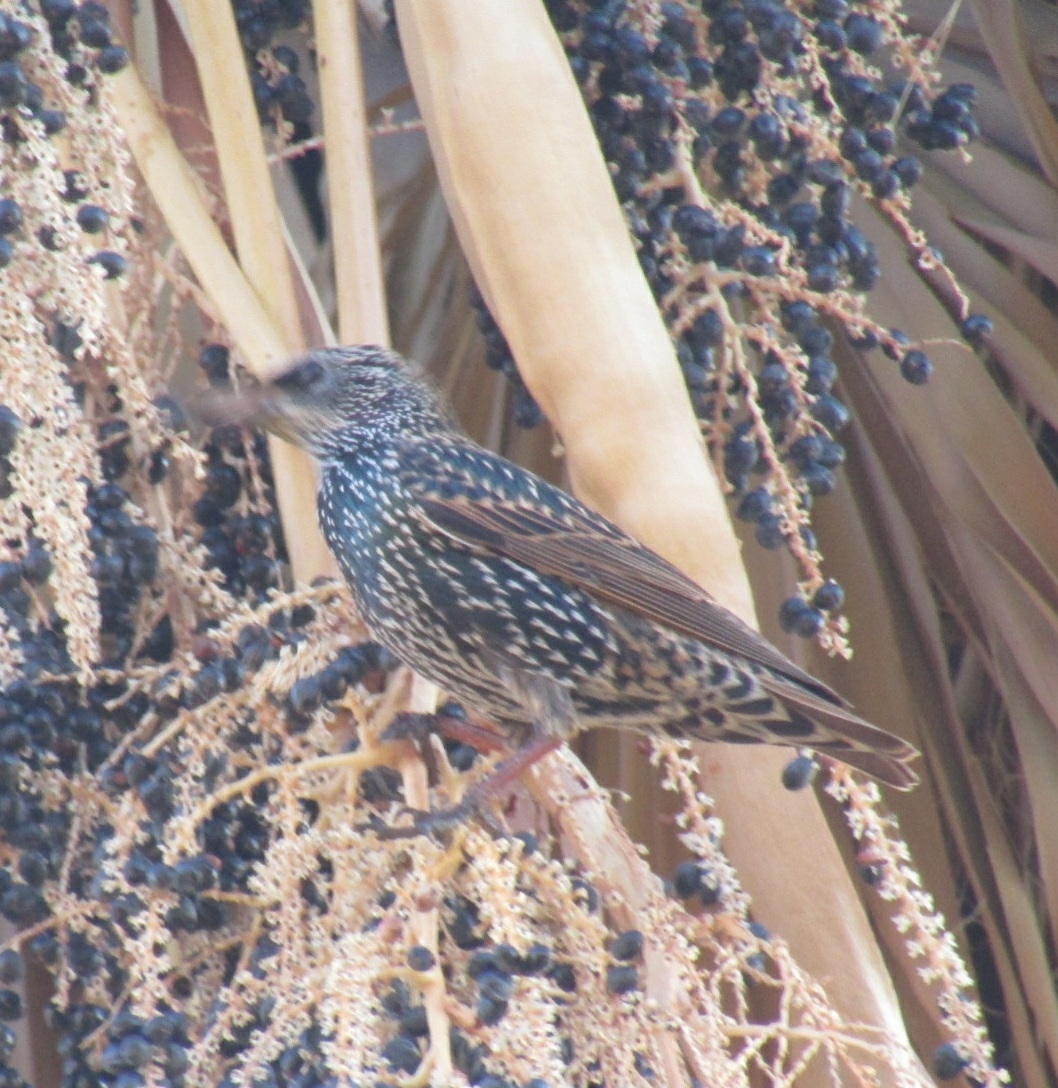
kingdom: Animalia
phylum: Chordata
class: Aves
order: Passeriformes
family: Sturnidae
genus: Sturnus
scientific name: Sturnus vulgaris
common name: Common starling
